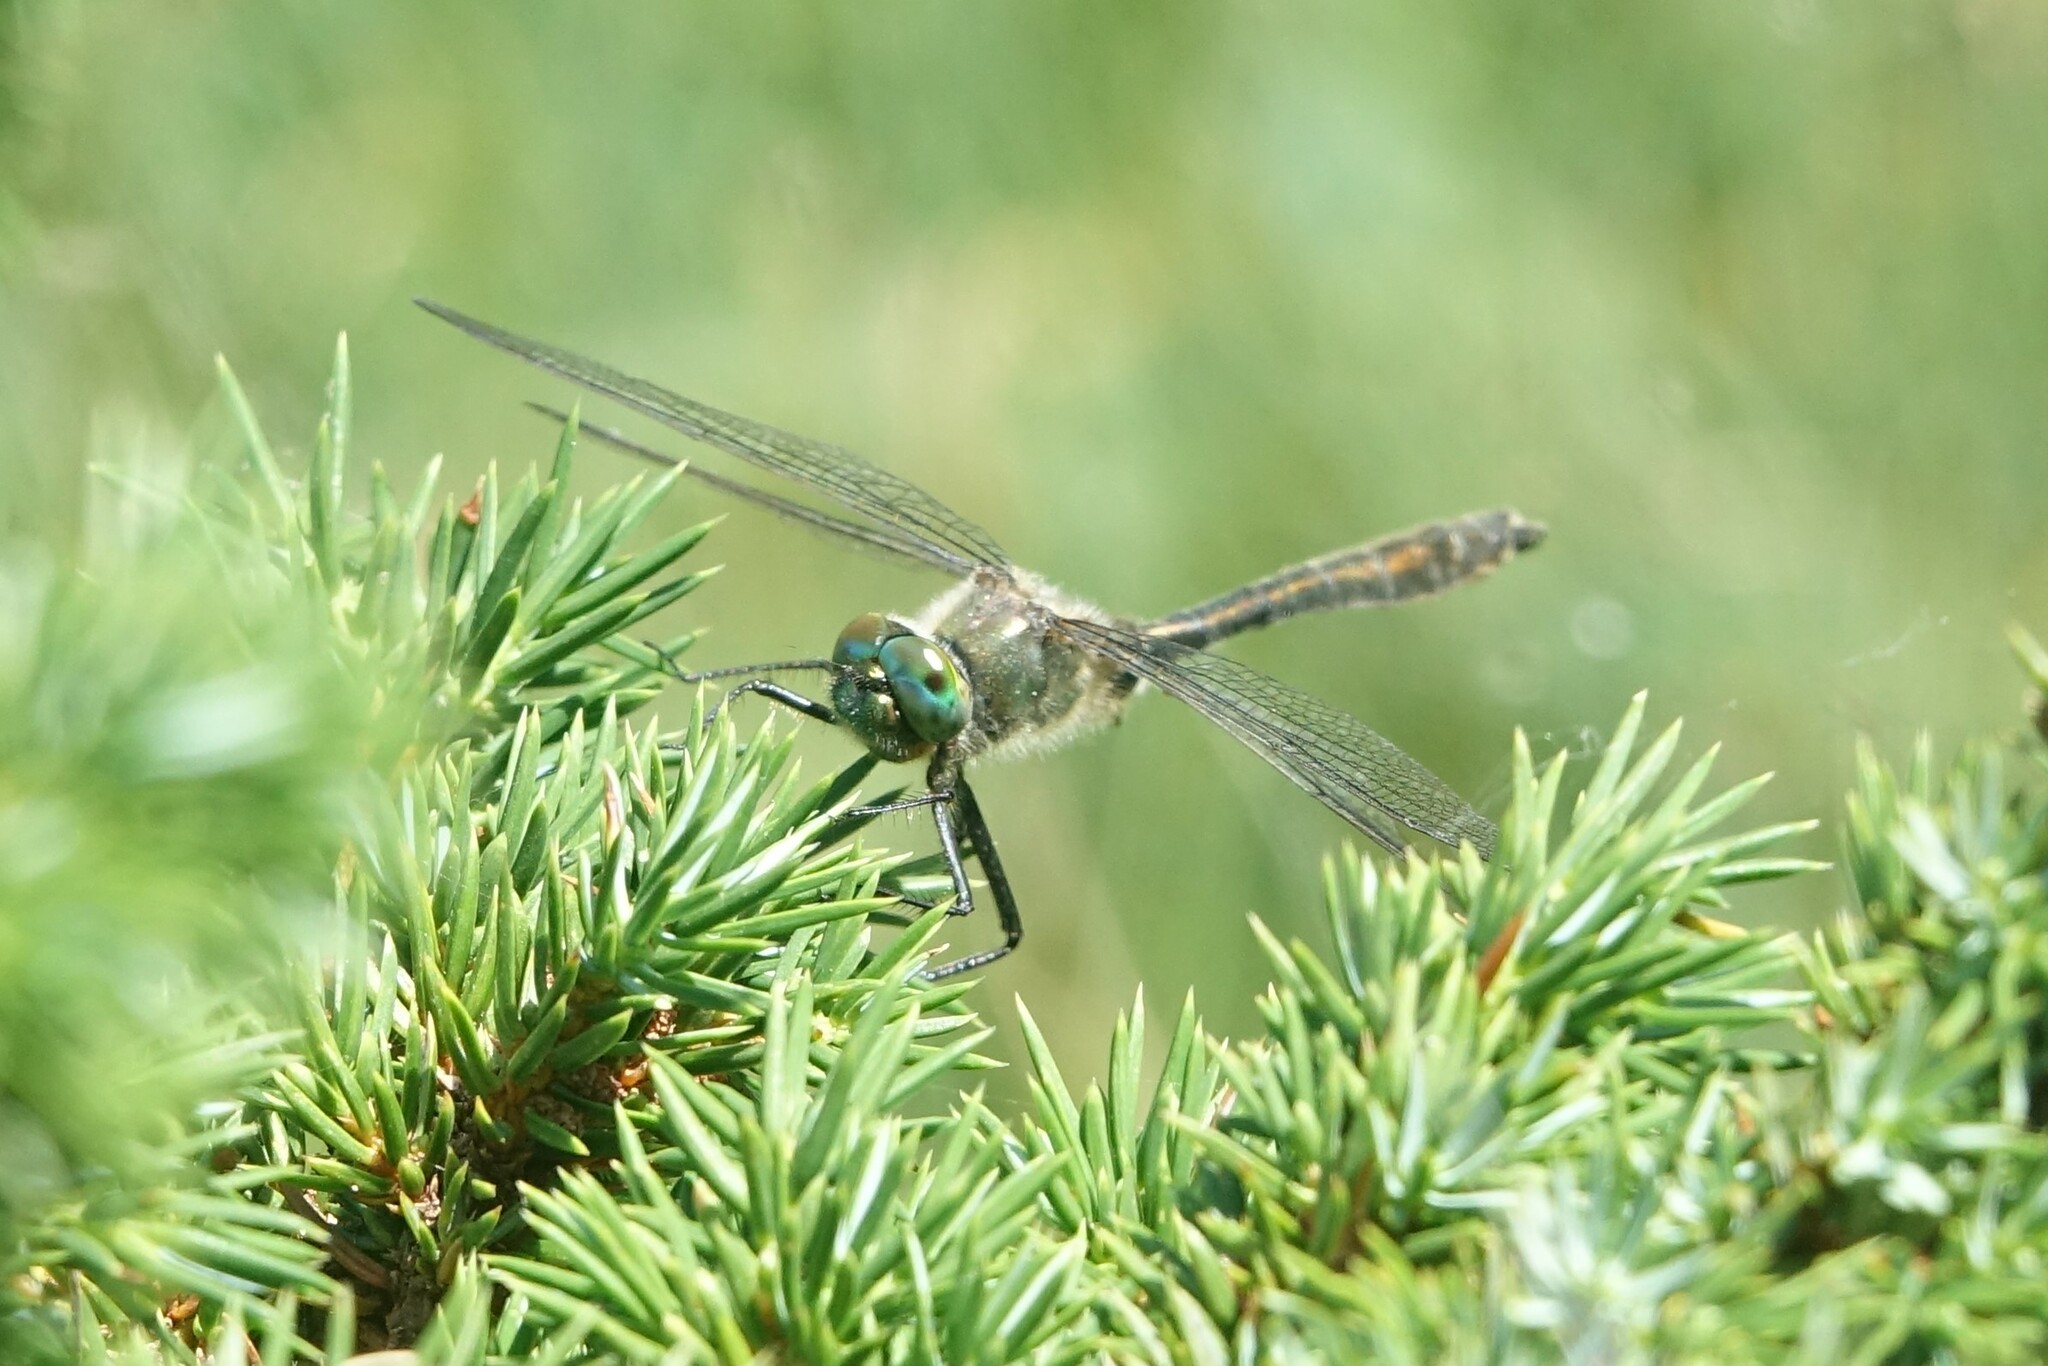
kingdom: Animalia
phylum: Arthropoda
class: Insecta
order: Odonata
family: Corduliidae
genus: Cordulia
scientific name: Cordulia aenea
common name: Downy emerald
